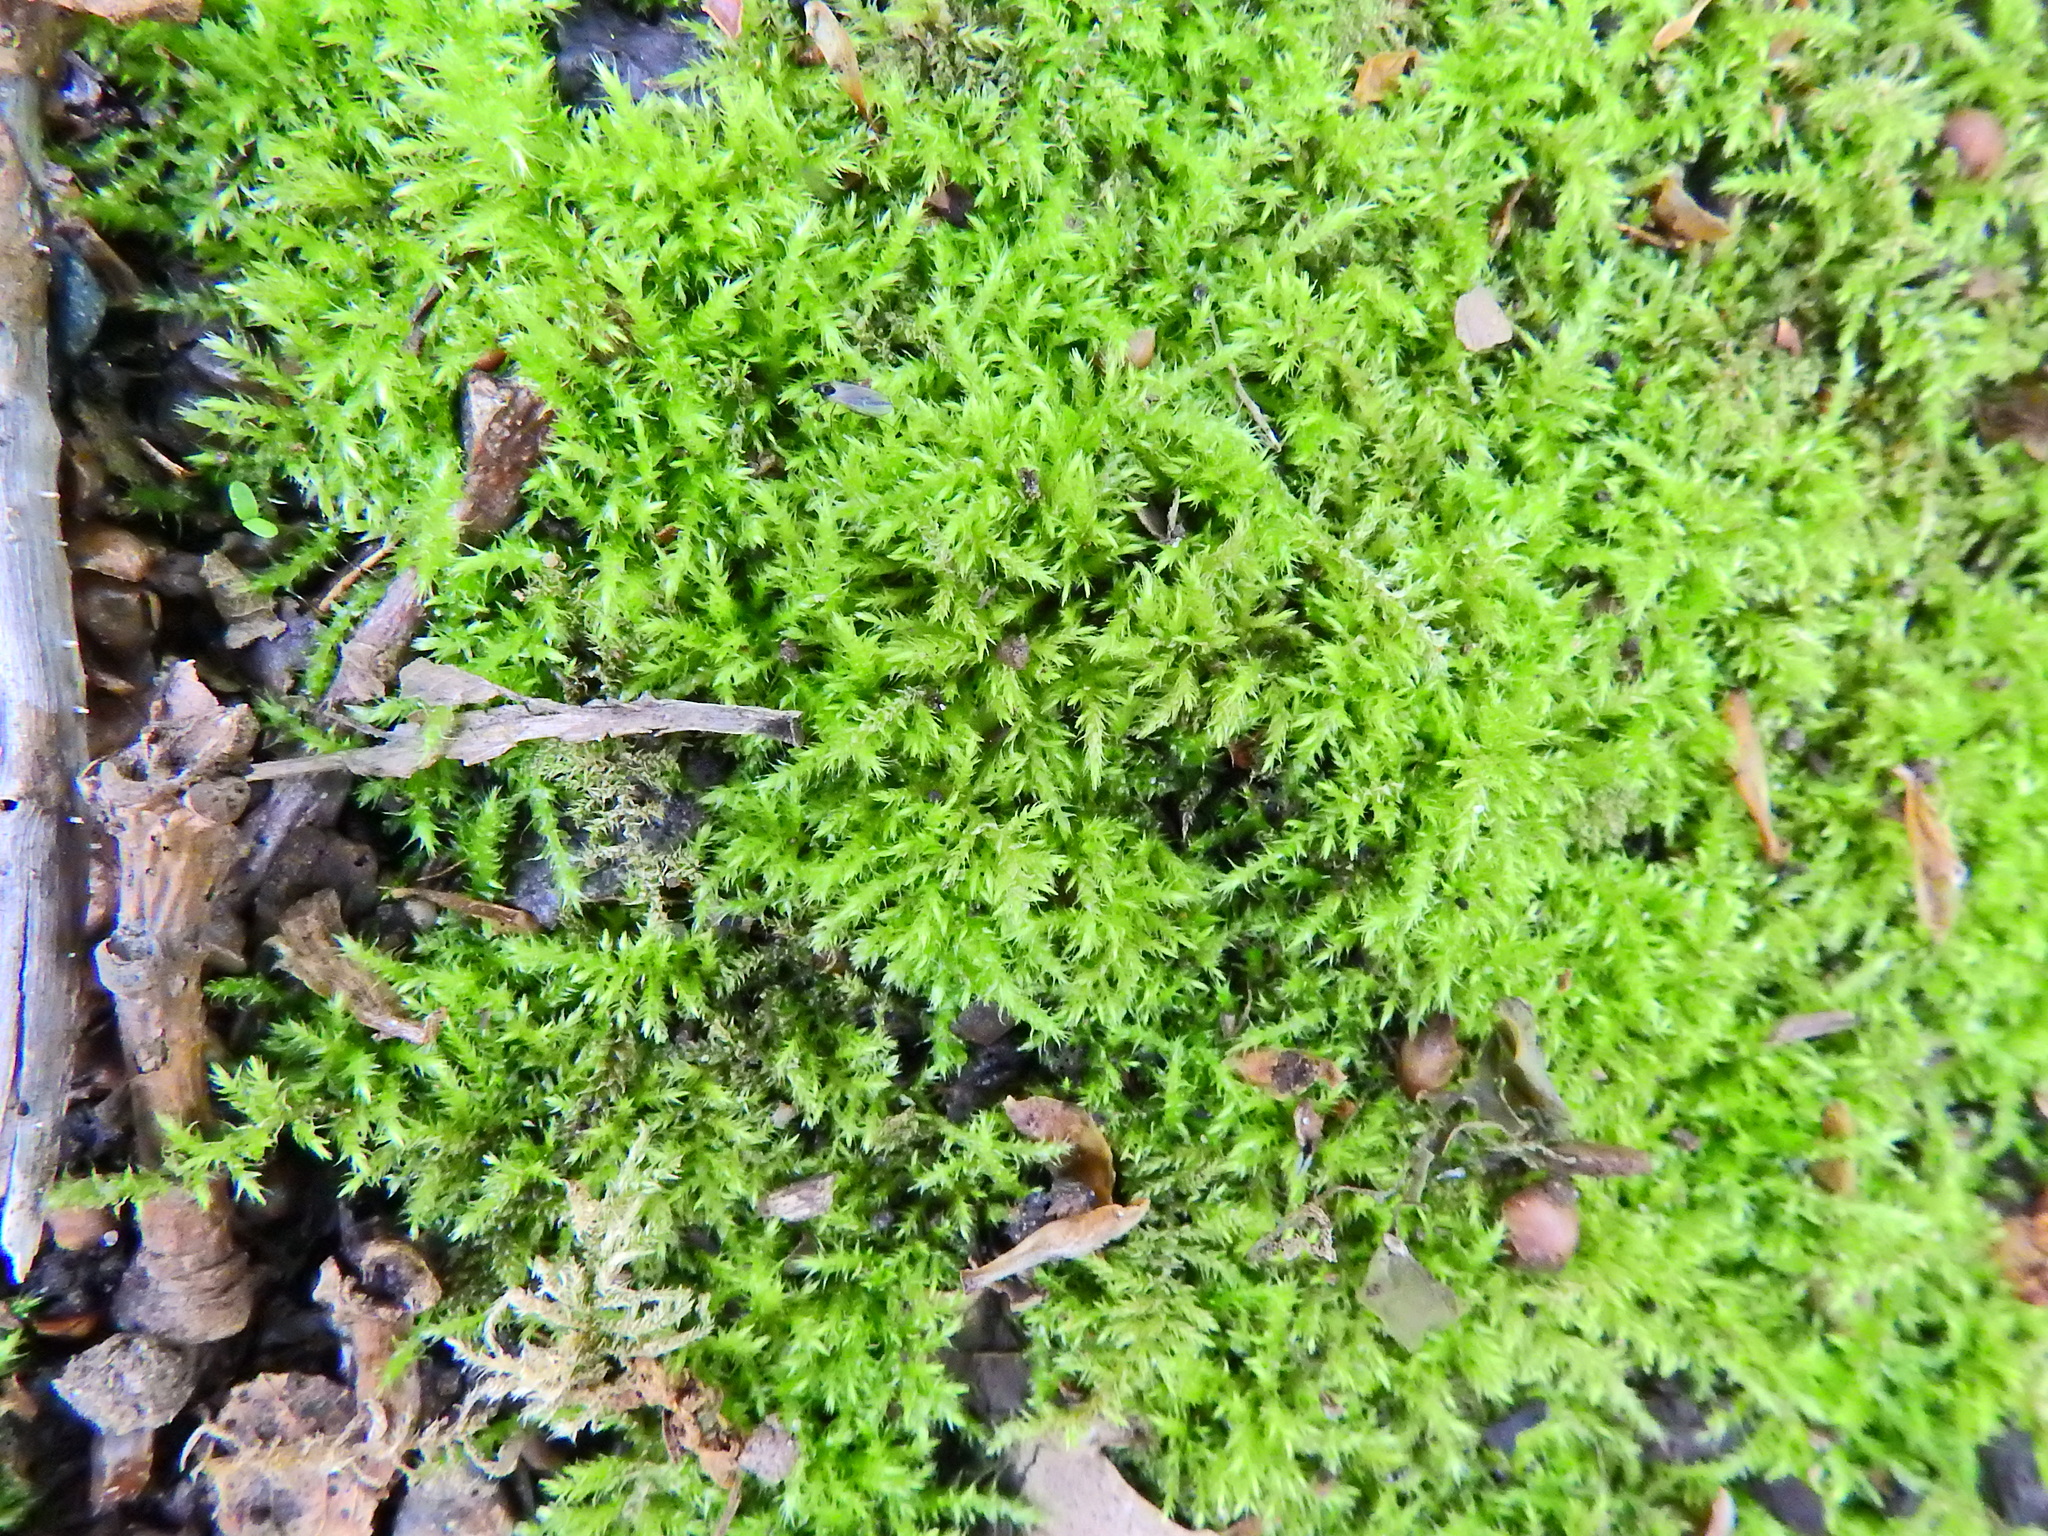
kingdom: Plantae
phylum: Bryophyta
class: Bryopsida
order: Hypnales
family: Brachytheciaceae
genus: Kindbergia
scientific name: Kindbergia praelonga
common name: Slender beaked moss
